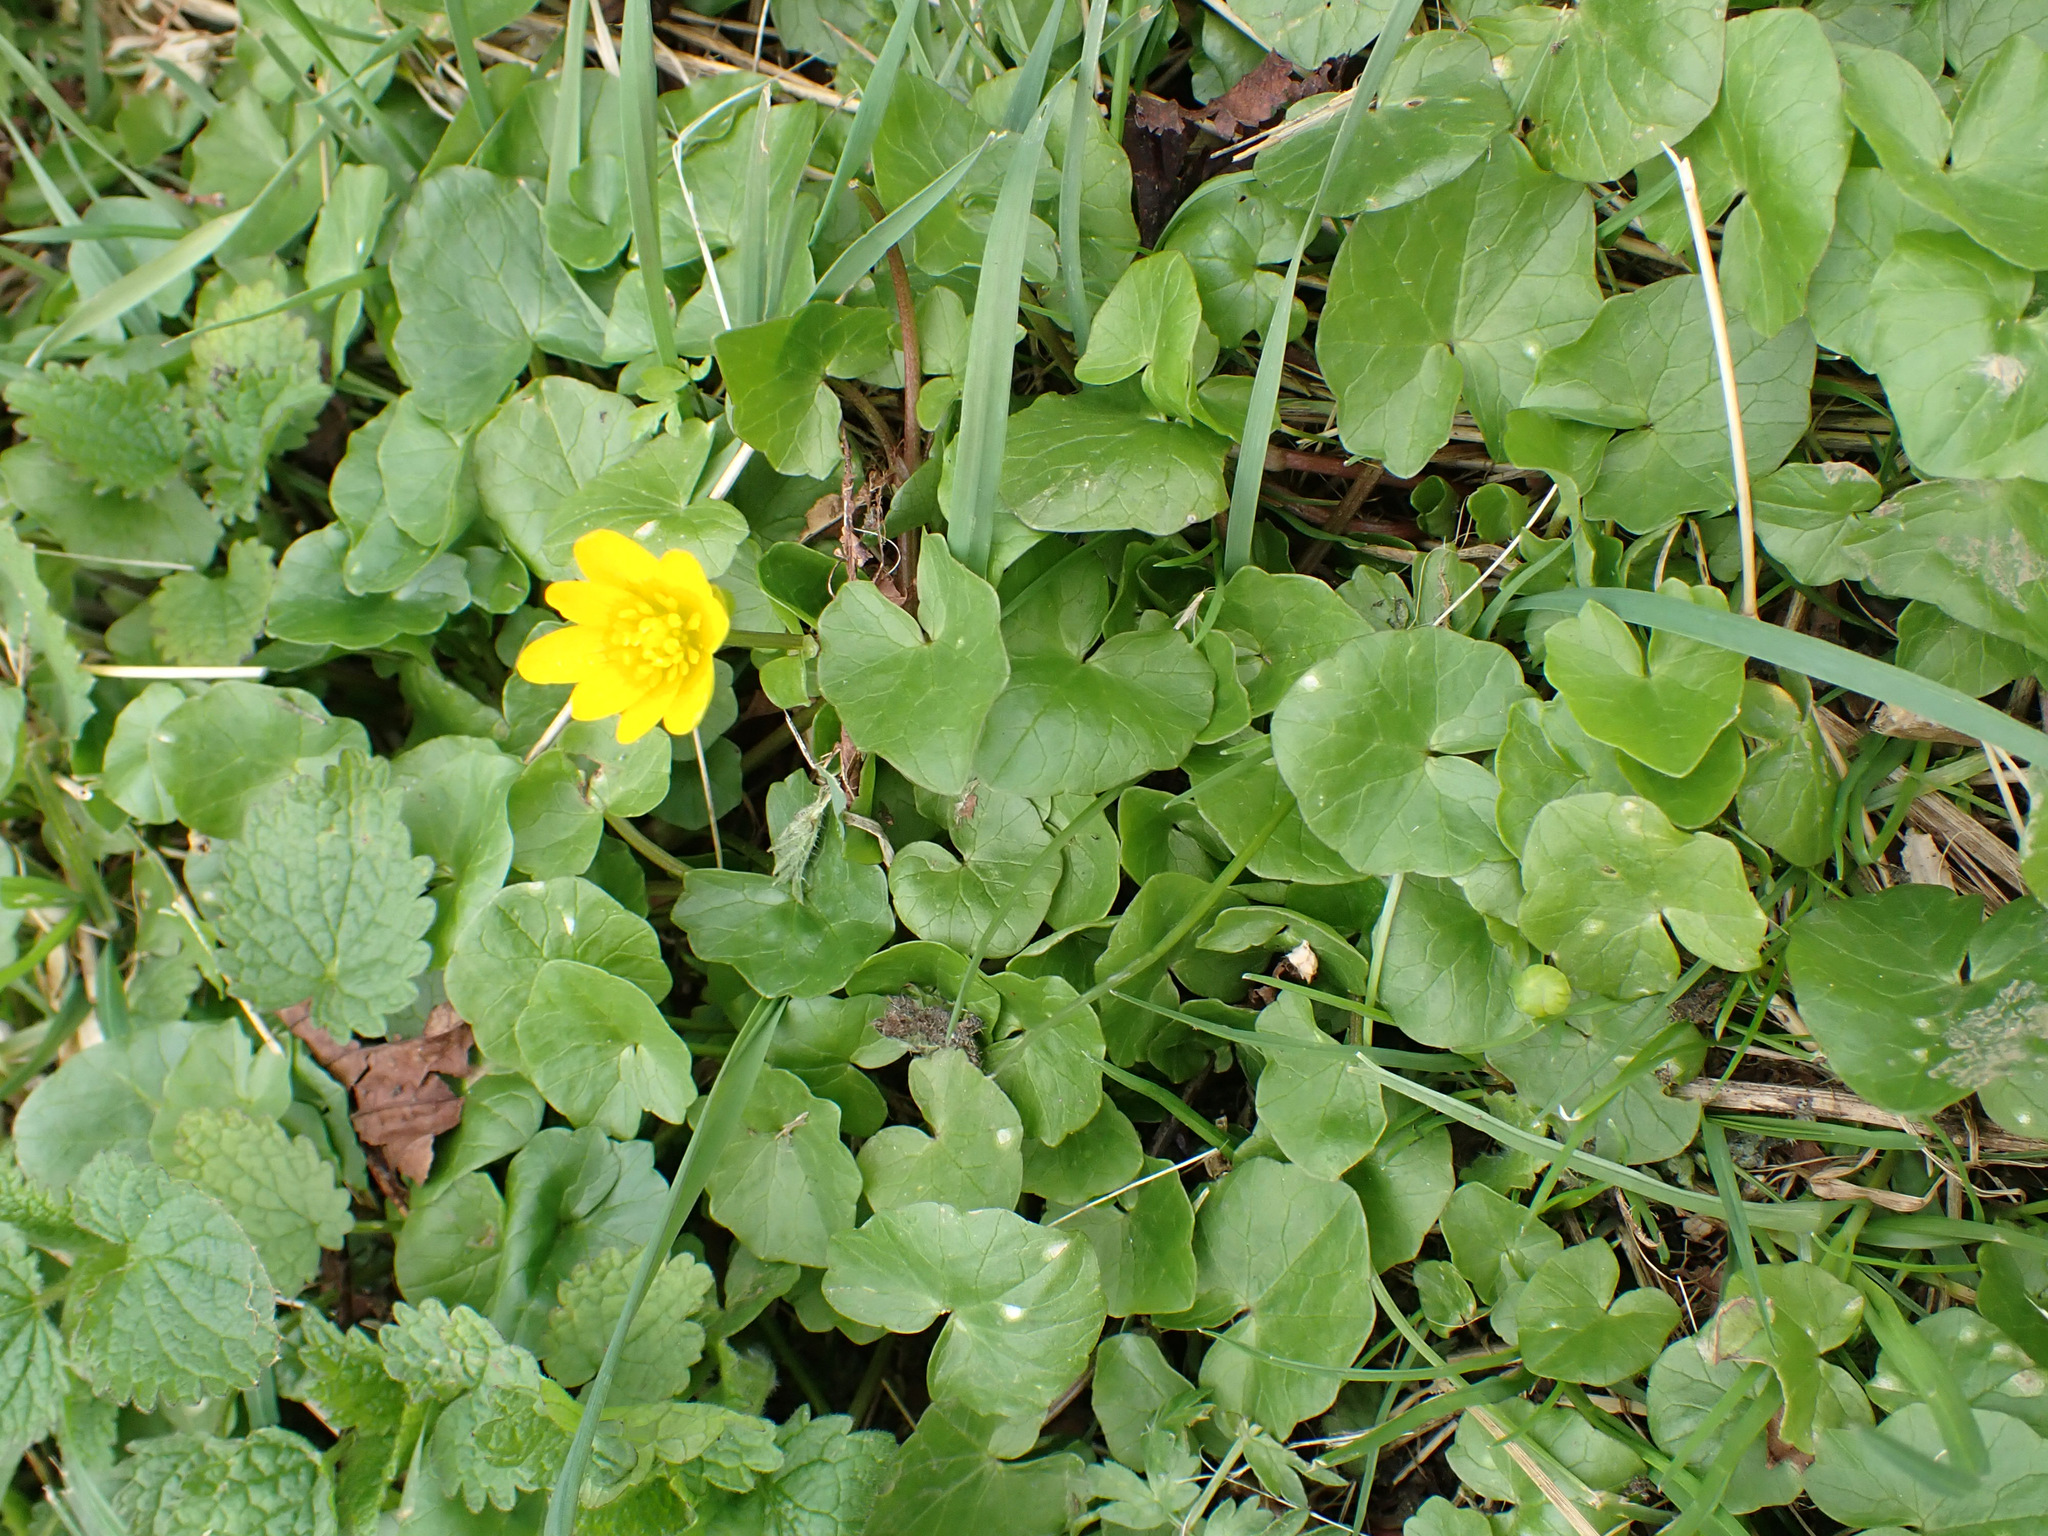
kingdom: Plantae
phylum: Tracheophyta
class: Magnoliopsida
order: Ranunculales
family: Ranunculaceae
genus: Ficaria
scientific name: Ficaria verna
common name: Lesser celandine
